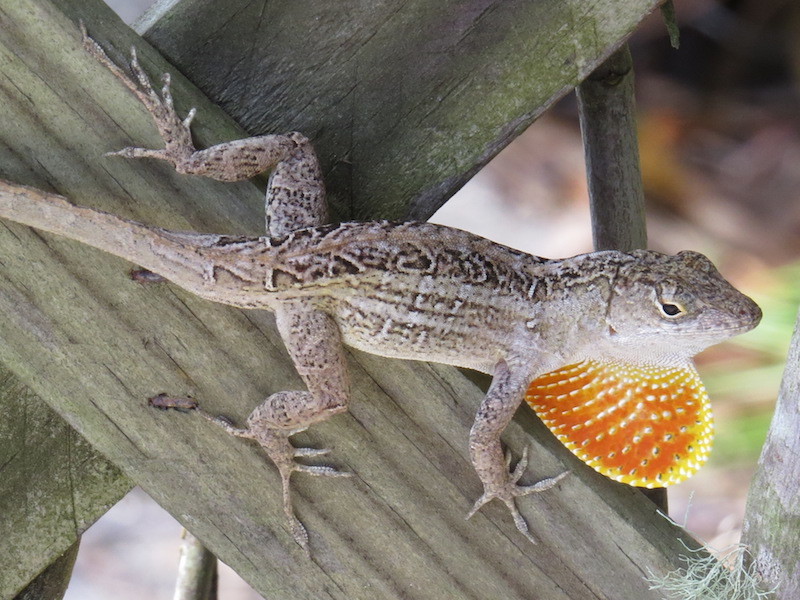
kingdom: Animalia
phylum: Chordata
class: Squamata
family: Dactyloidae
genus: Anolis
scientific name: Anolis sagrei
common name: Brown anole
